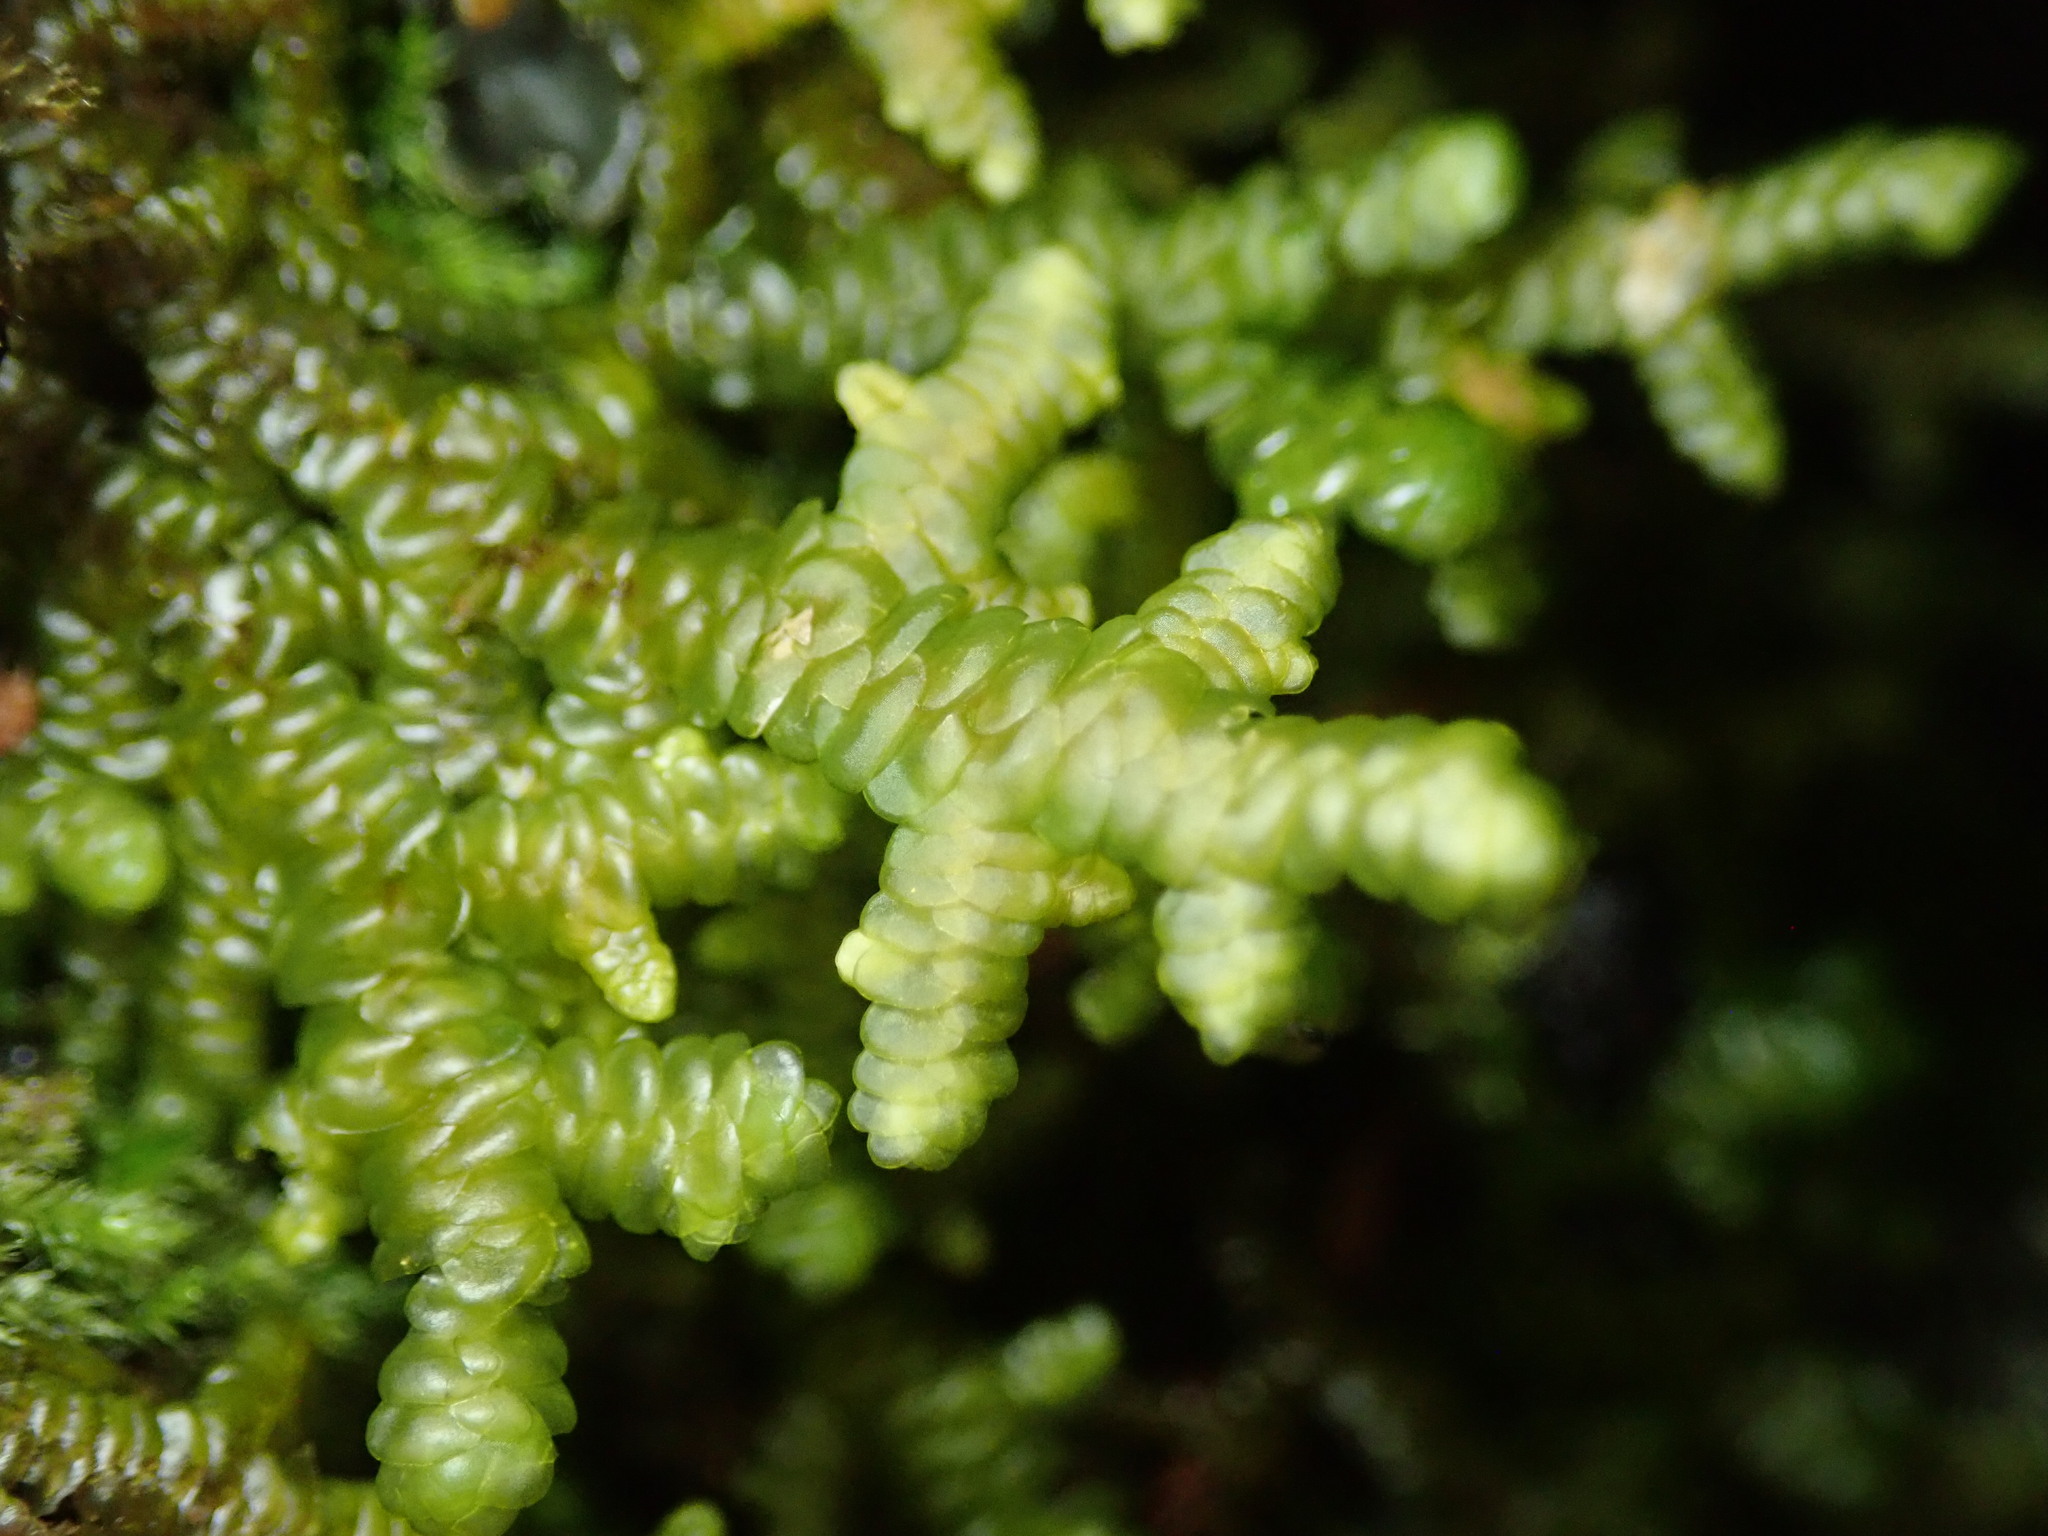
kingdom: Plantae
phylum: Marchantiophyta
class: Jungermanniopsida
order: Porellales
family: Porellaceae
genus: Porella
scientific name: Porella navicularis
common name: Tree ruffle liverwort
